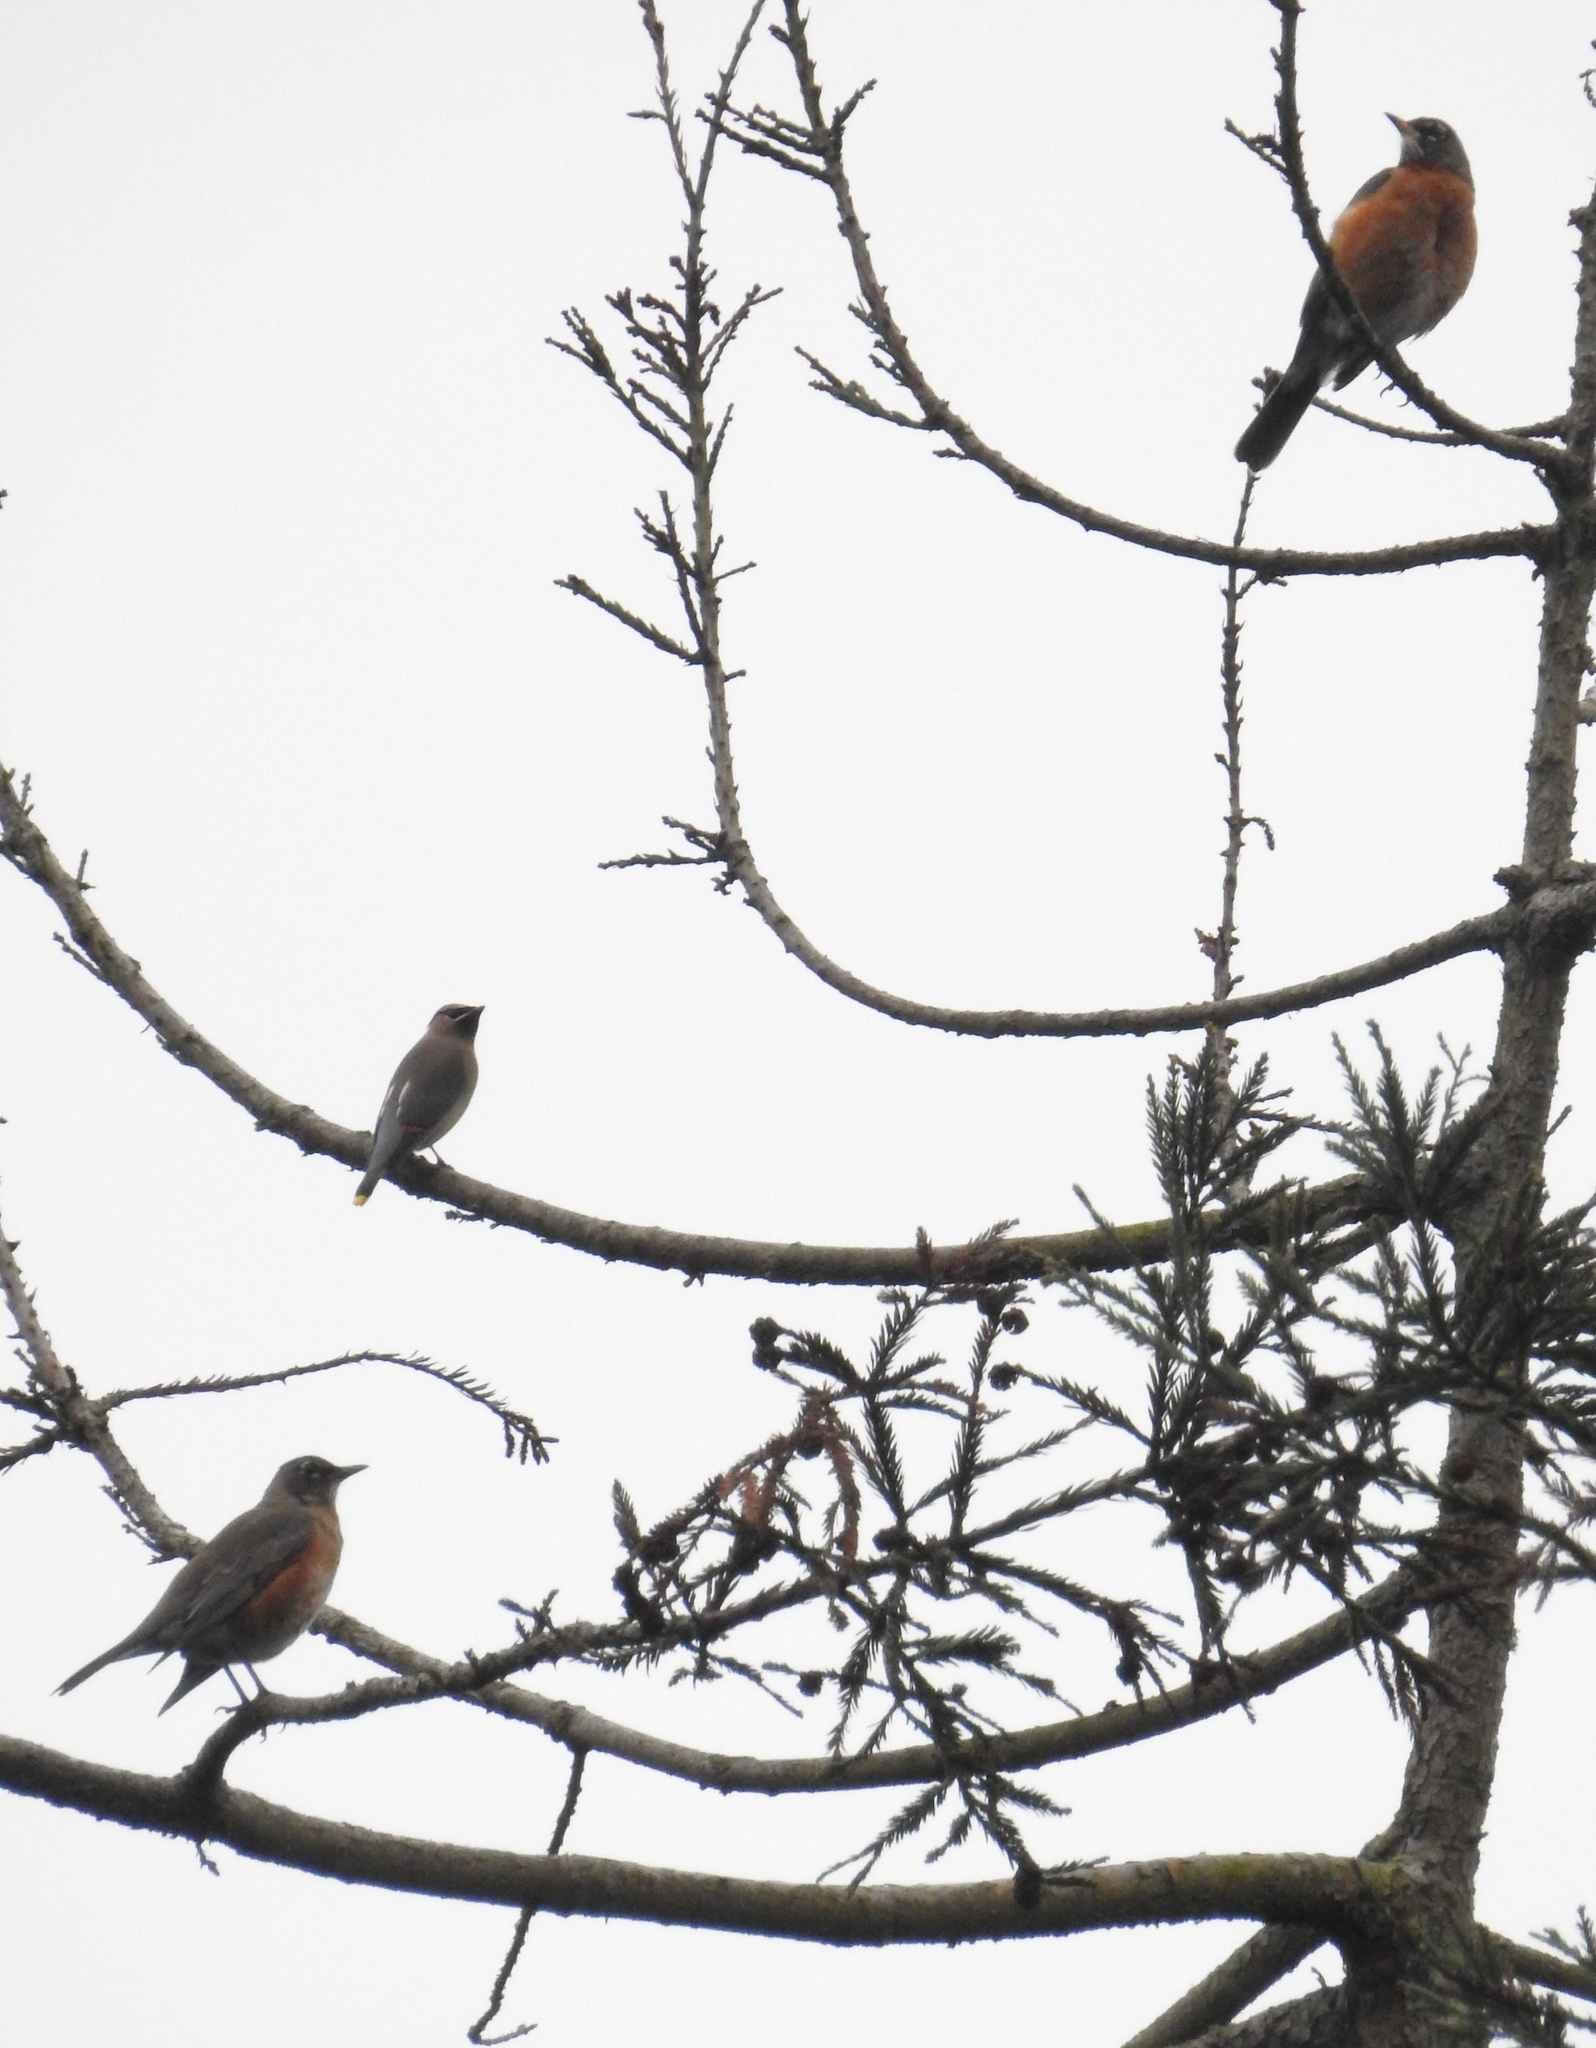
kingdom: Animalia
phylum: Chordata
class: Aves
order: Passeriformes
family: Turdidae
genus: Turdus
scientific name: Turdus migratorius
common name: American robin
